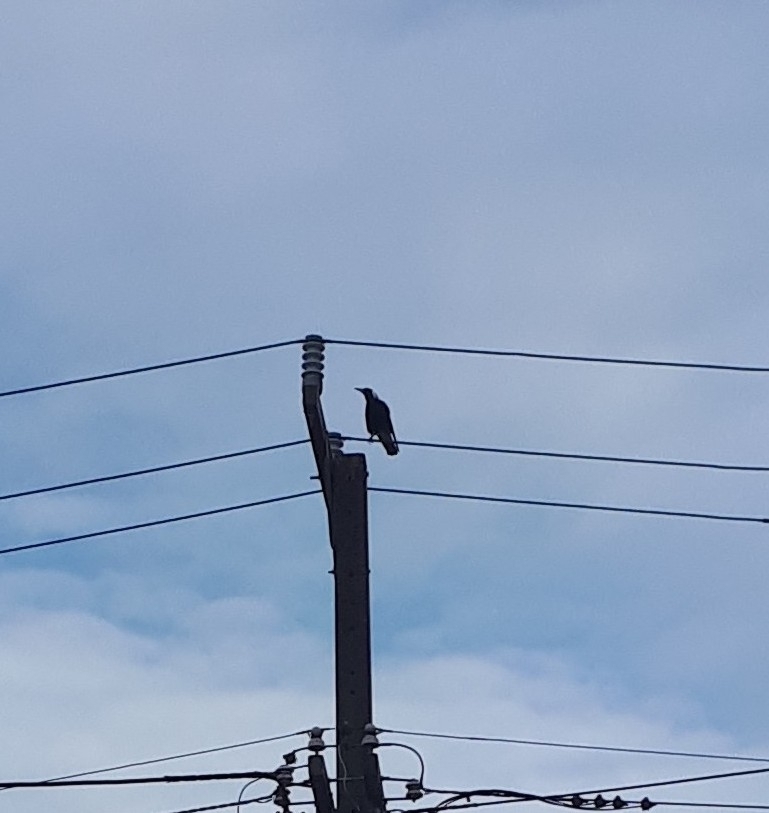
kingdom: Animalia
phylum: Chordata
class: Aves
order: Passeriformes
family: Cracticidae
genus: Gymnorhina
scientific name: Gymnorhina tibicen
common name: Australian magpie
